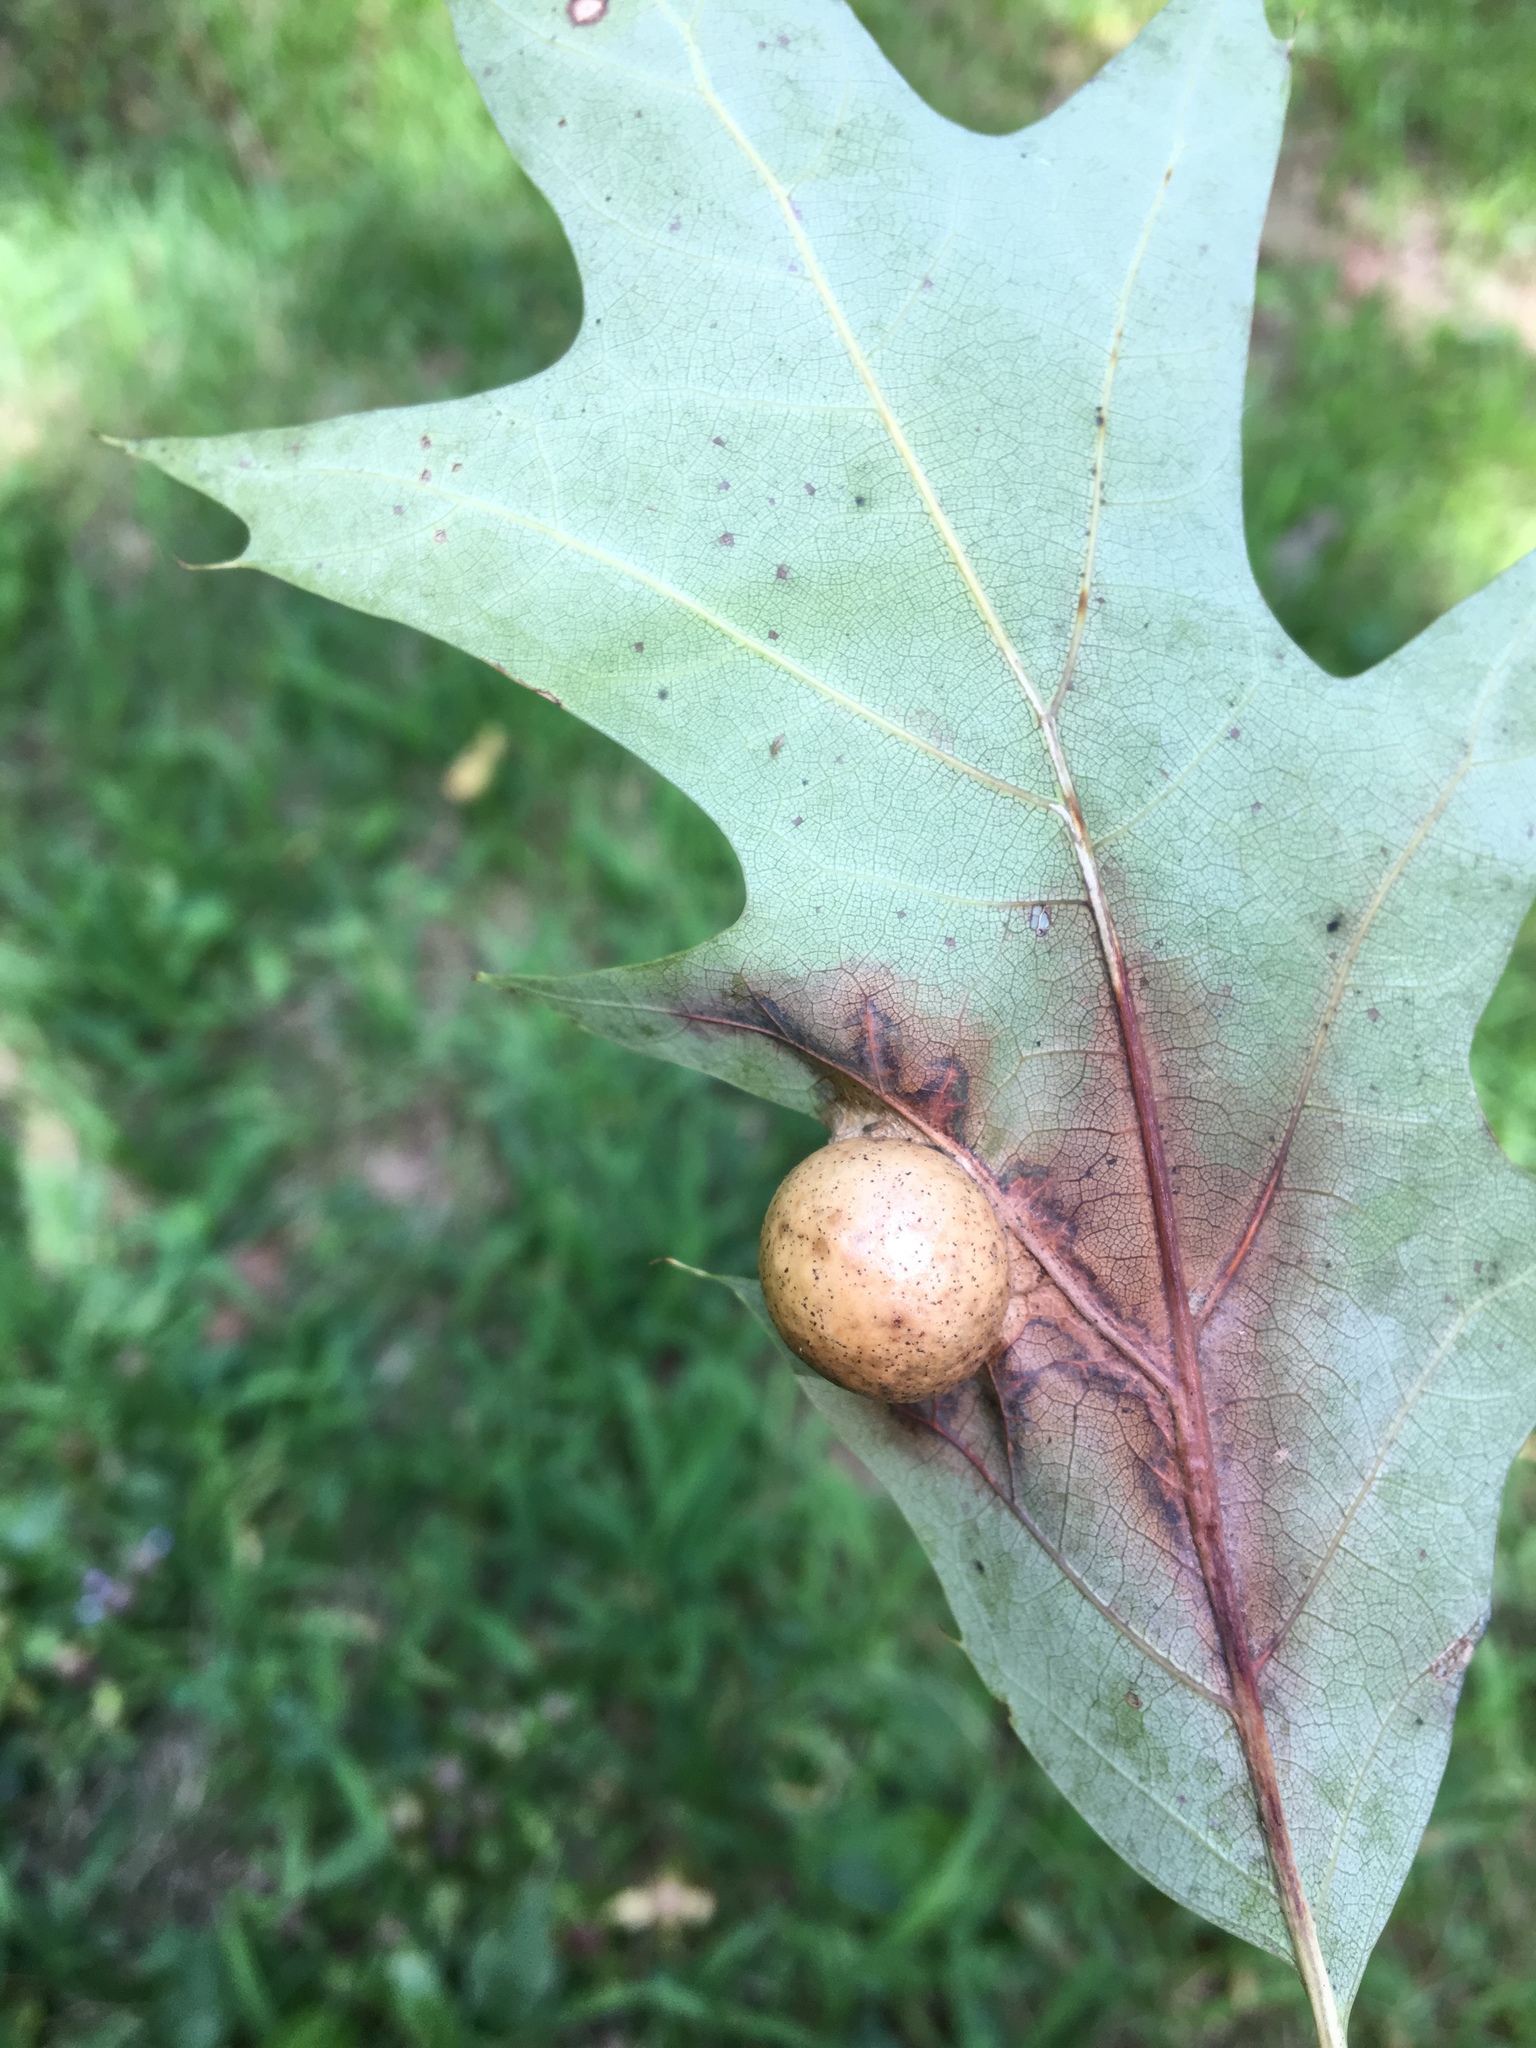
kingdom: Animalia
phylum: Arthropoda
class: Insecta
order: Hymenoptera
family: Cynipidae
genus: Amphibolips
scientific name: Amphibolips
